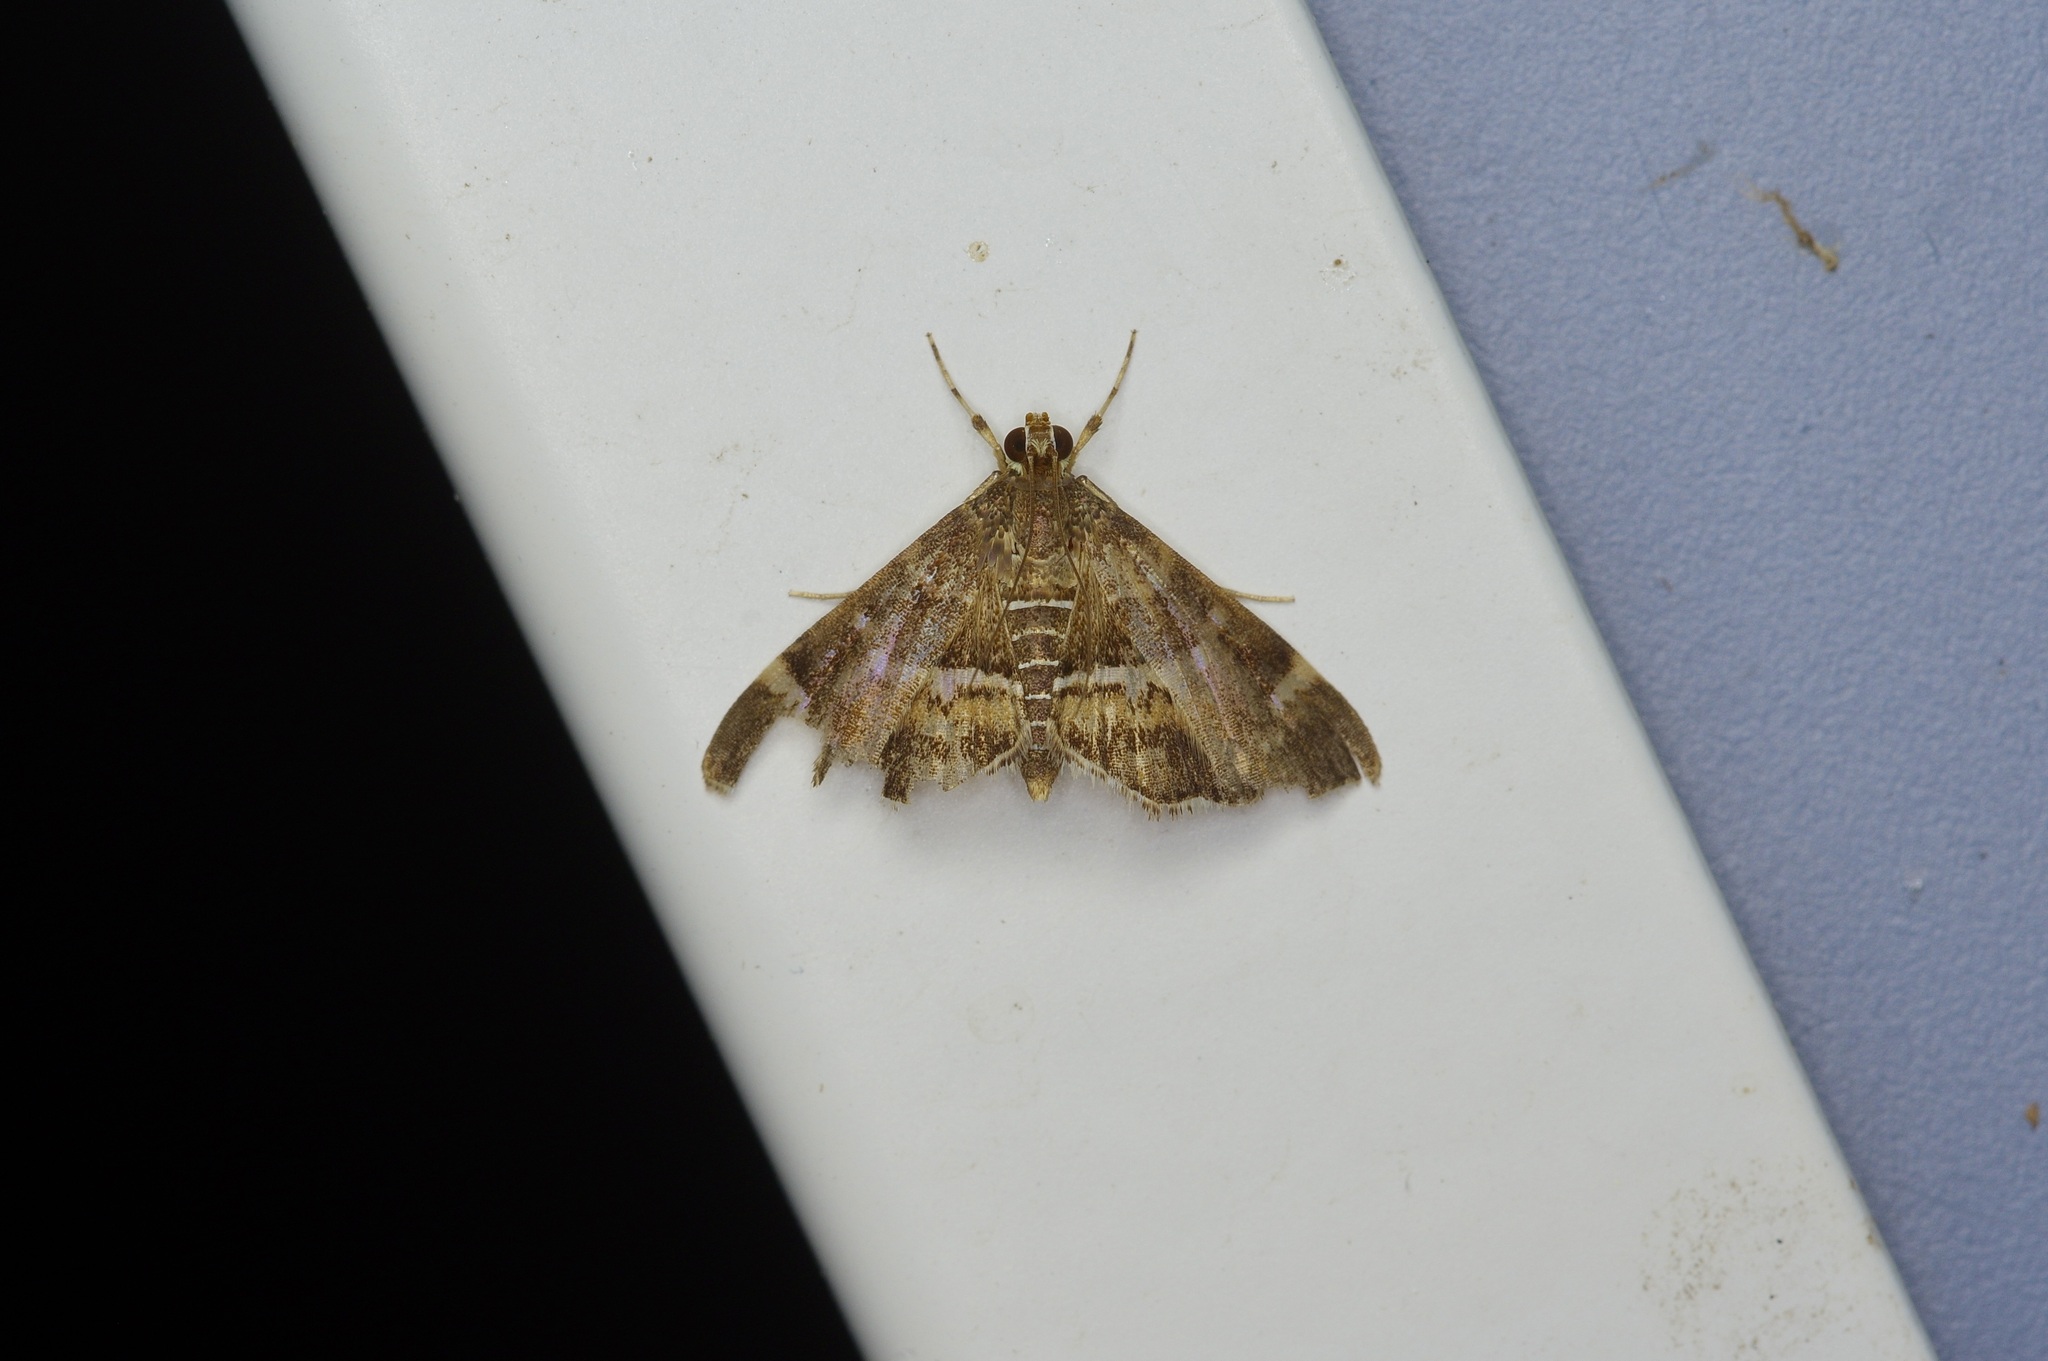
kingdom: Animalia
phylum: Arthropoda
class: Insecta
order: Lepidoptera
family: Crambidae
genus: Hymenia
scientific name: Hymenia perspectalis
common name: Spotted beet webworm
